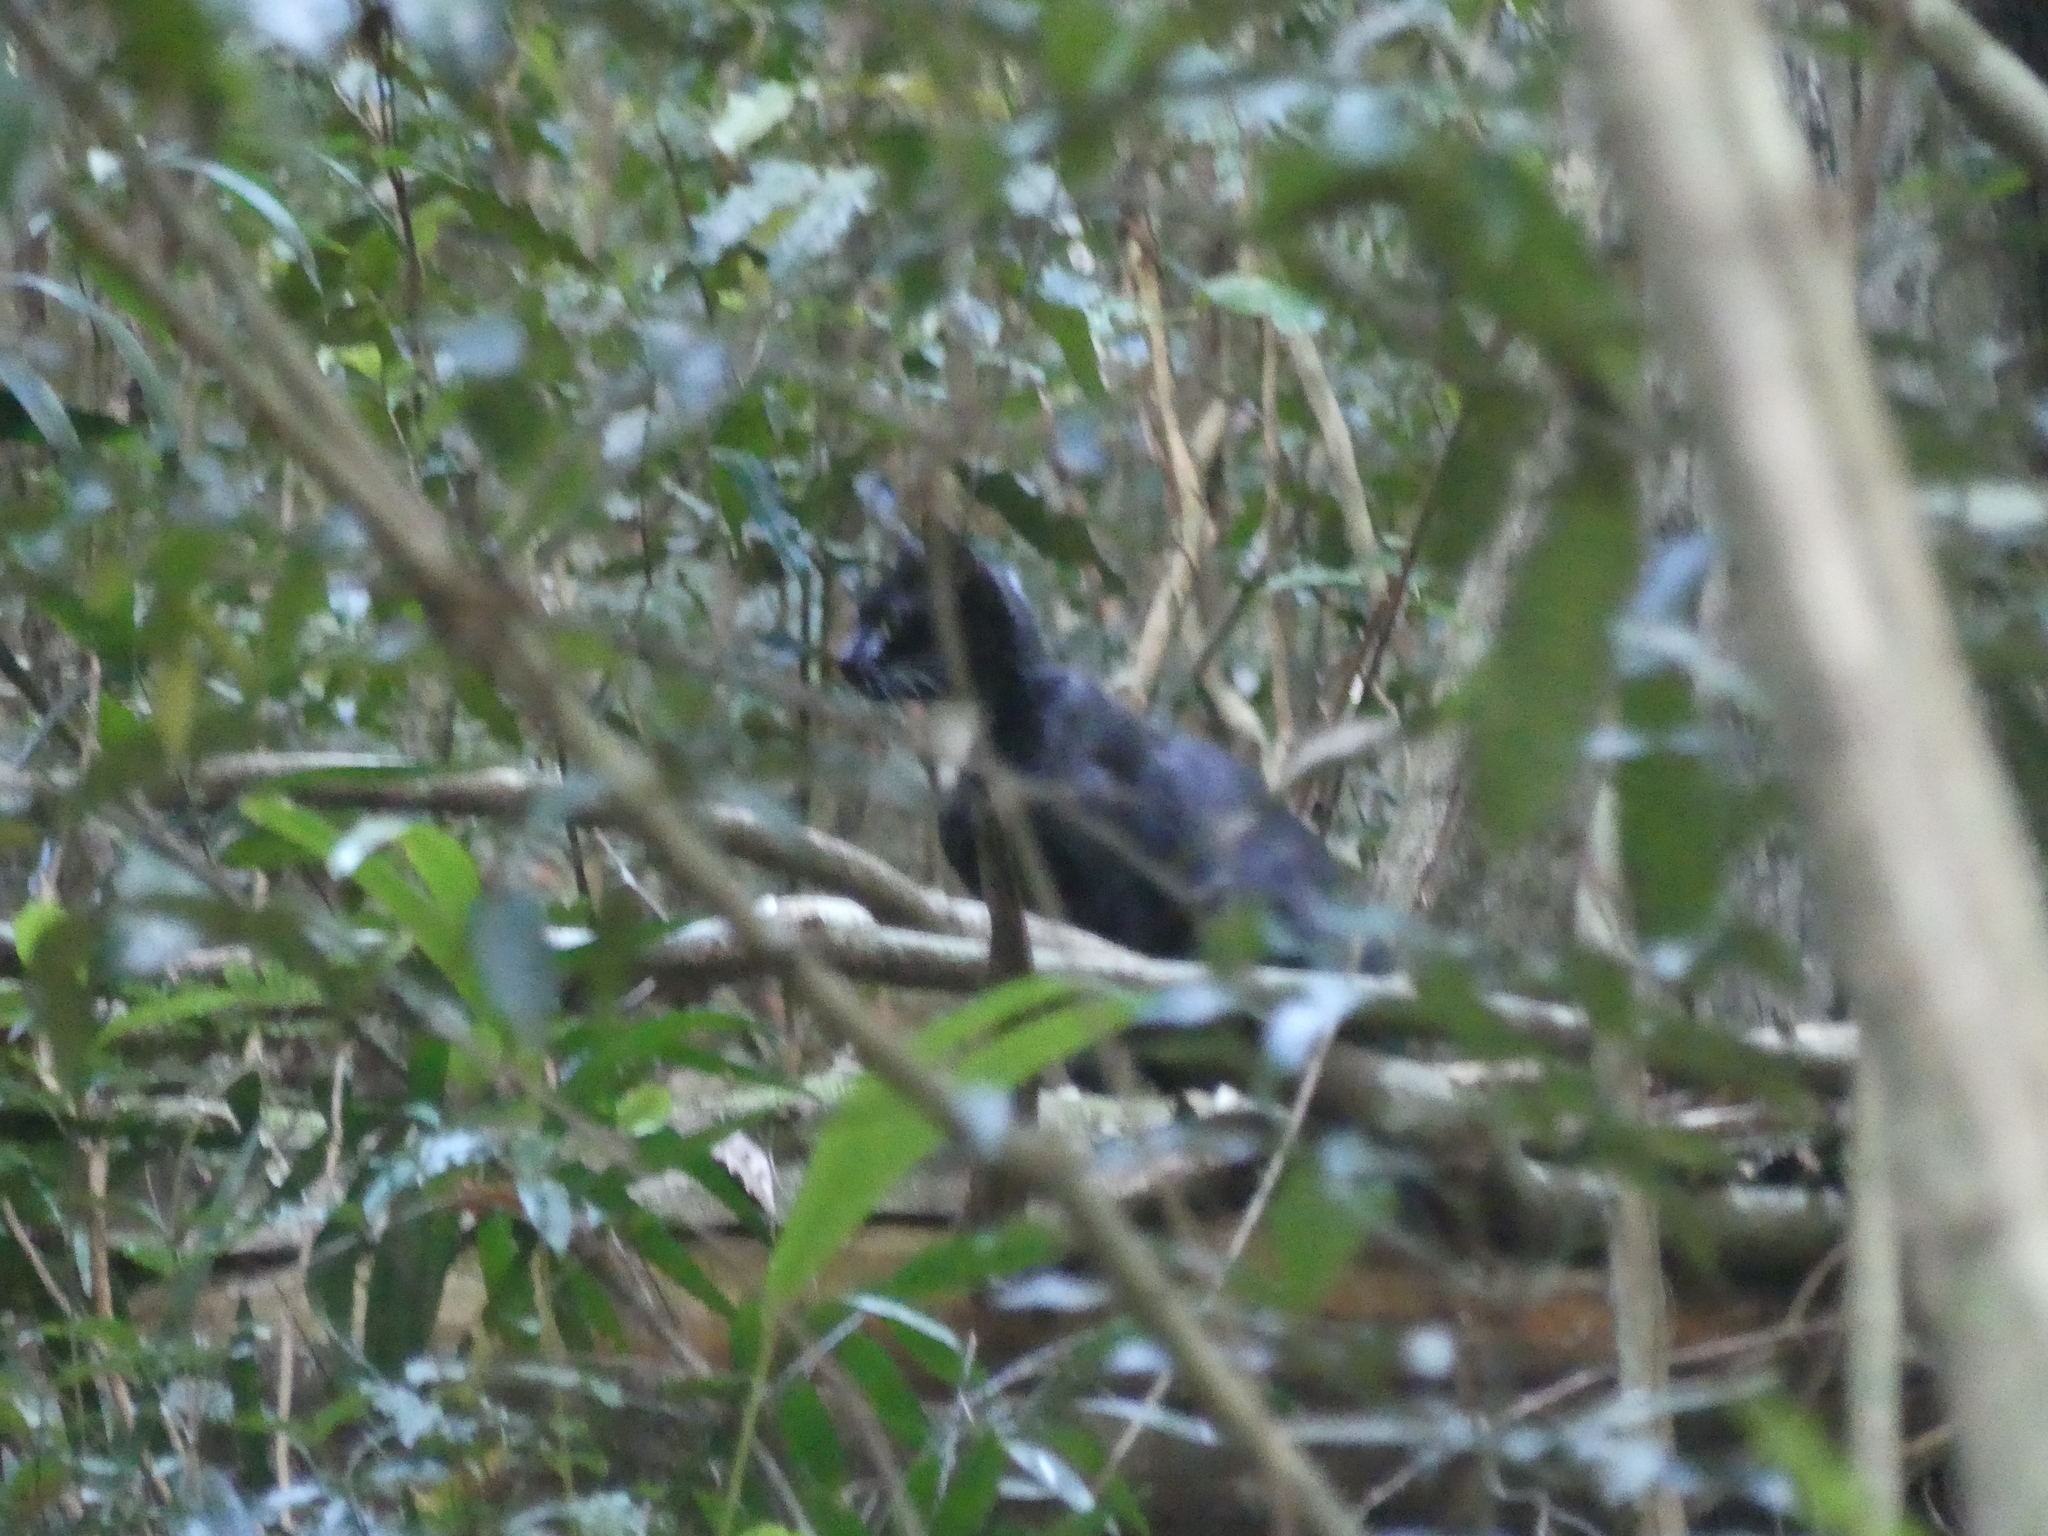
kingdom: Animalia
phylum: Chordata
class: Mammalia
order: Carnivora
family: Felidae
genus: Felis
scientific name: Felis catus
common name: Domestic cat
